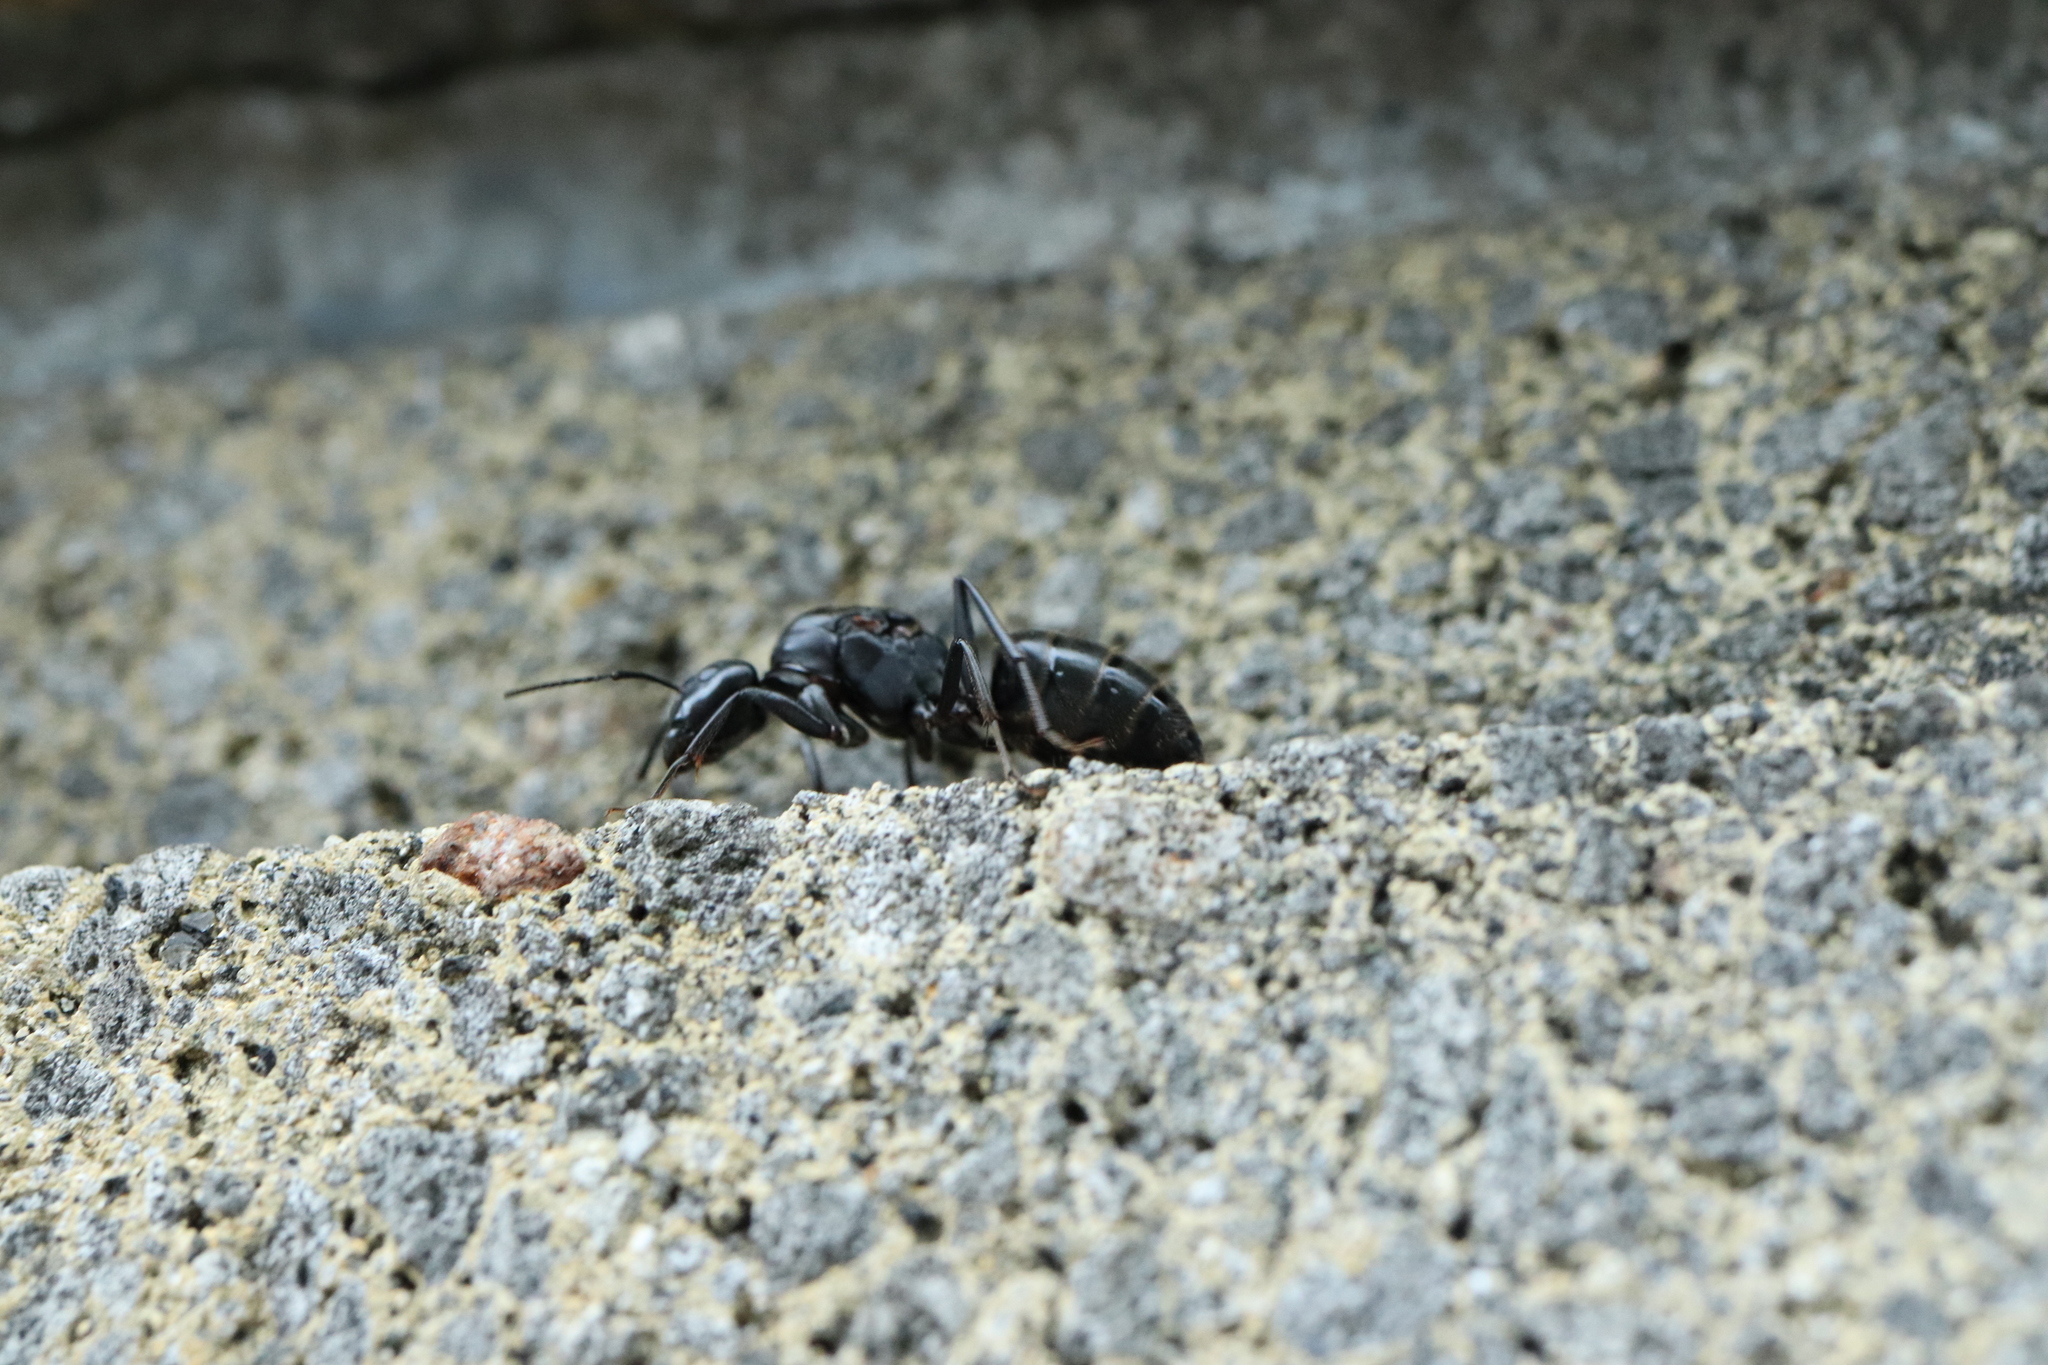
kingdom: Animalia
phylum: Arthropoda
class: Insecta
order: Hymenoptera
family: Formicidae
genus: Camponotus
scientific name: Camponotus japonicus
